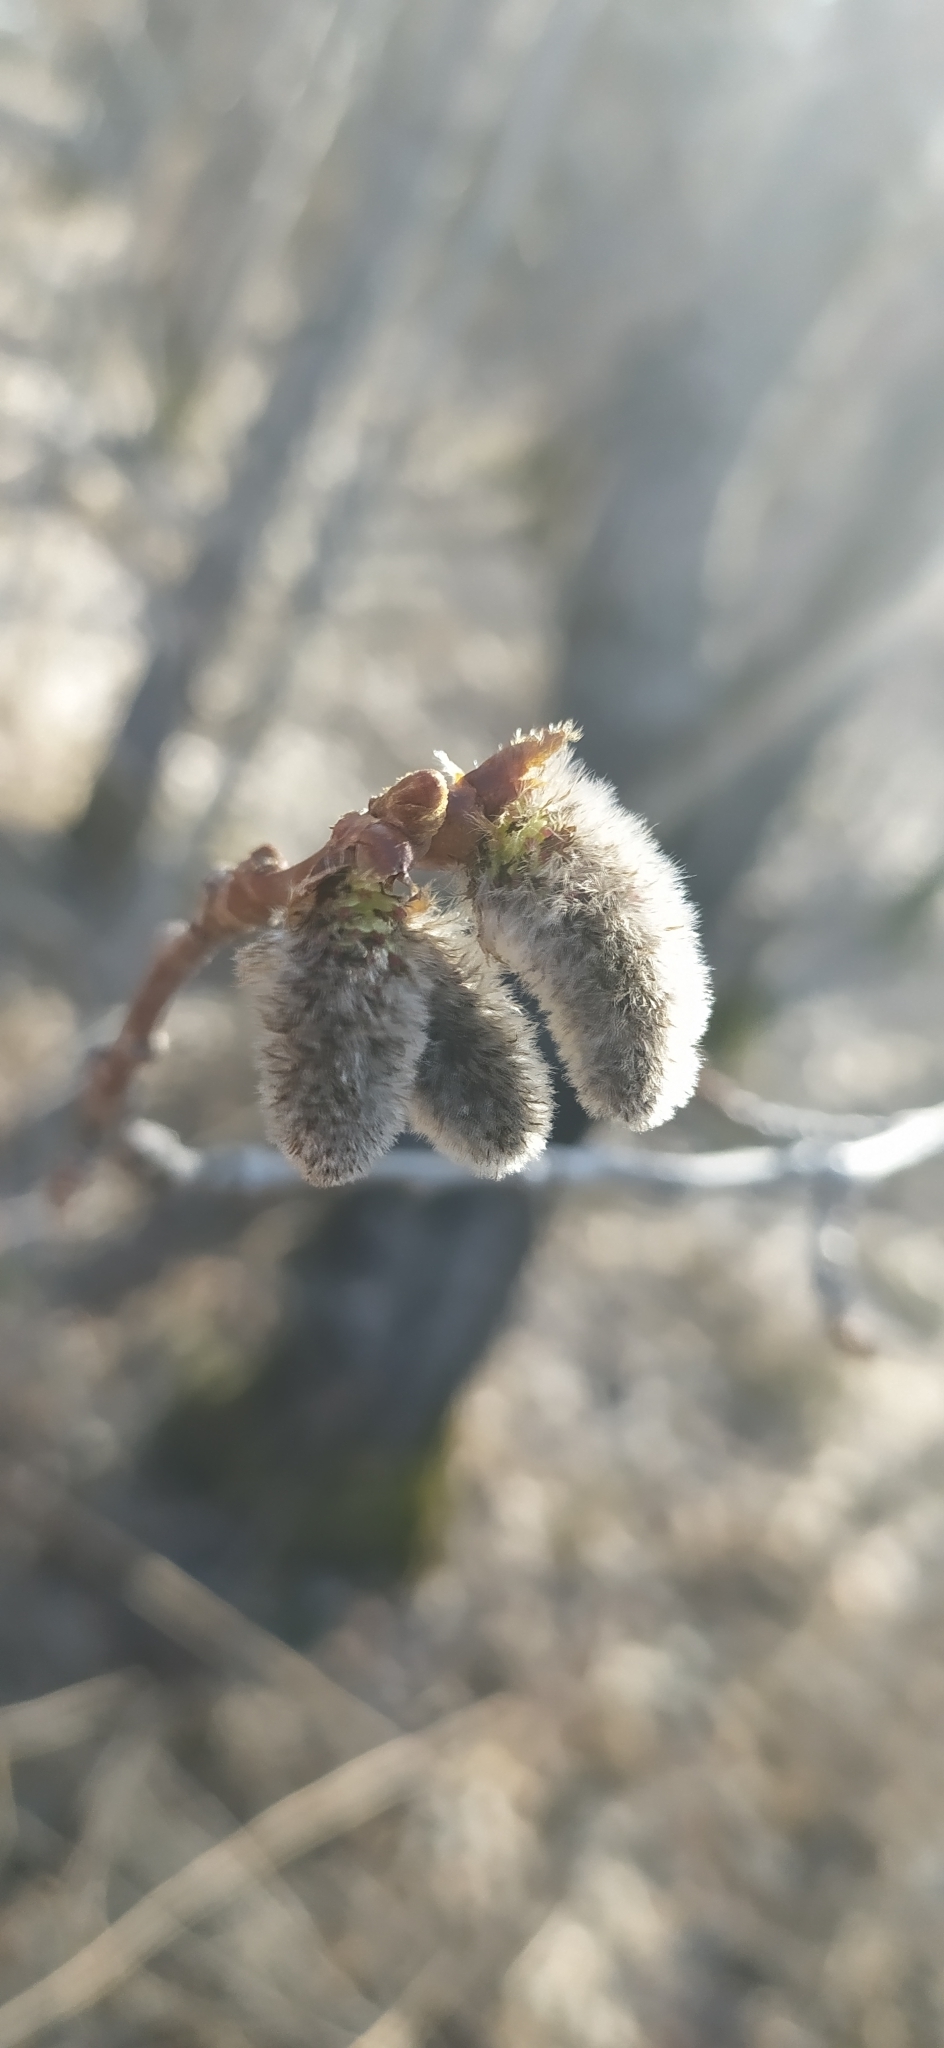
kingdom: Plantae
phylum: Tracheophyta
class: Magnoliopsida
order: Malpighiales
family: Salicaceae
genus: Populus
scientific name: Populus tremula
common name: European aspen
